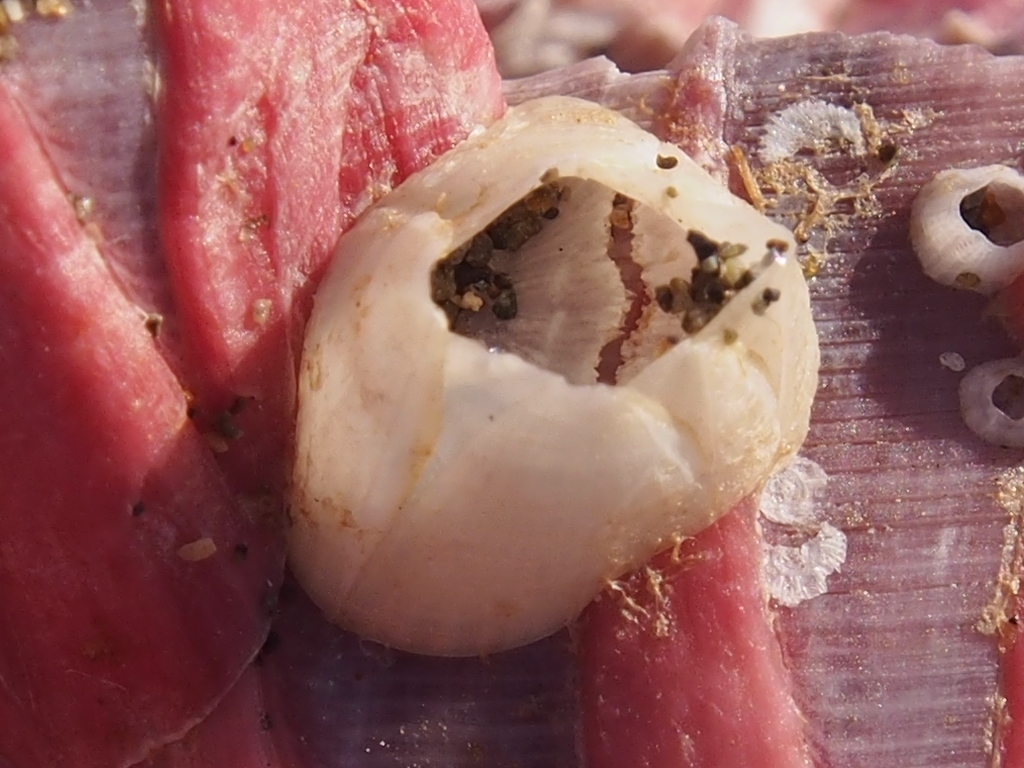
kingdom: Animalia
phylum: Arthropoda
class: Maxillopoda
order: Sessilia
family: Balanidae
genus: Amphibalanus
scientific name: Amphibalanus improvisus
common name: Bay barnacle
